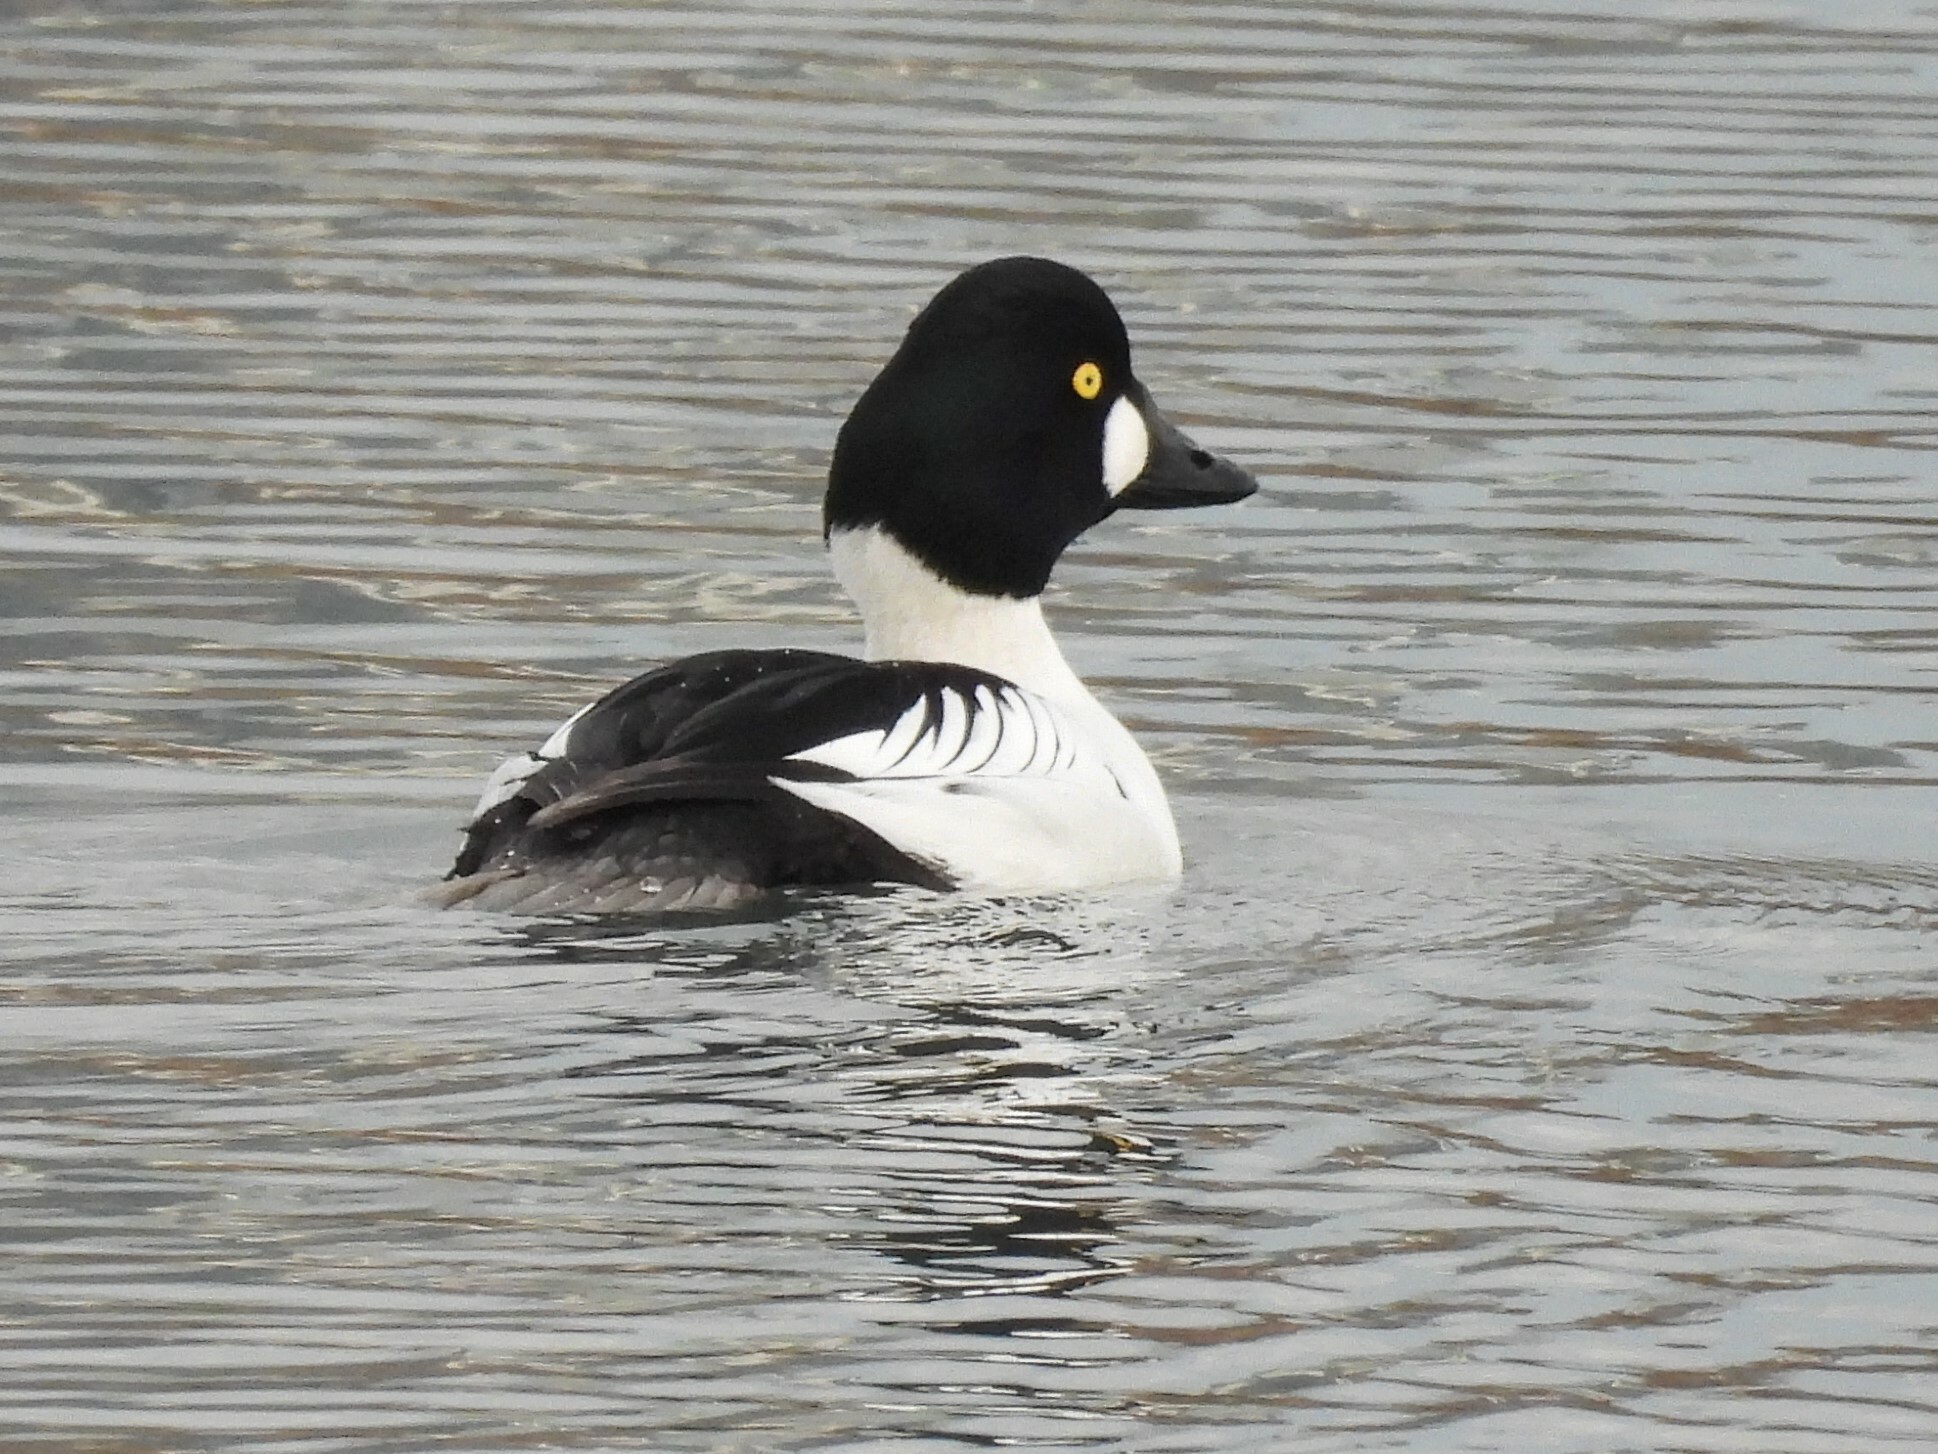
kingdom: Animalia
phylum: Chordata
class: Aves
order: Anseriformes
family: Anatidae
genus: Bucephala
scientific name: Bucephala clangula
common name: Common goldeneye
